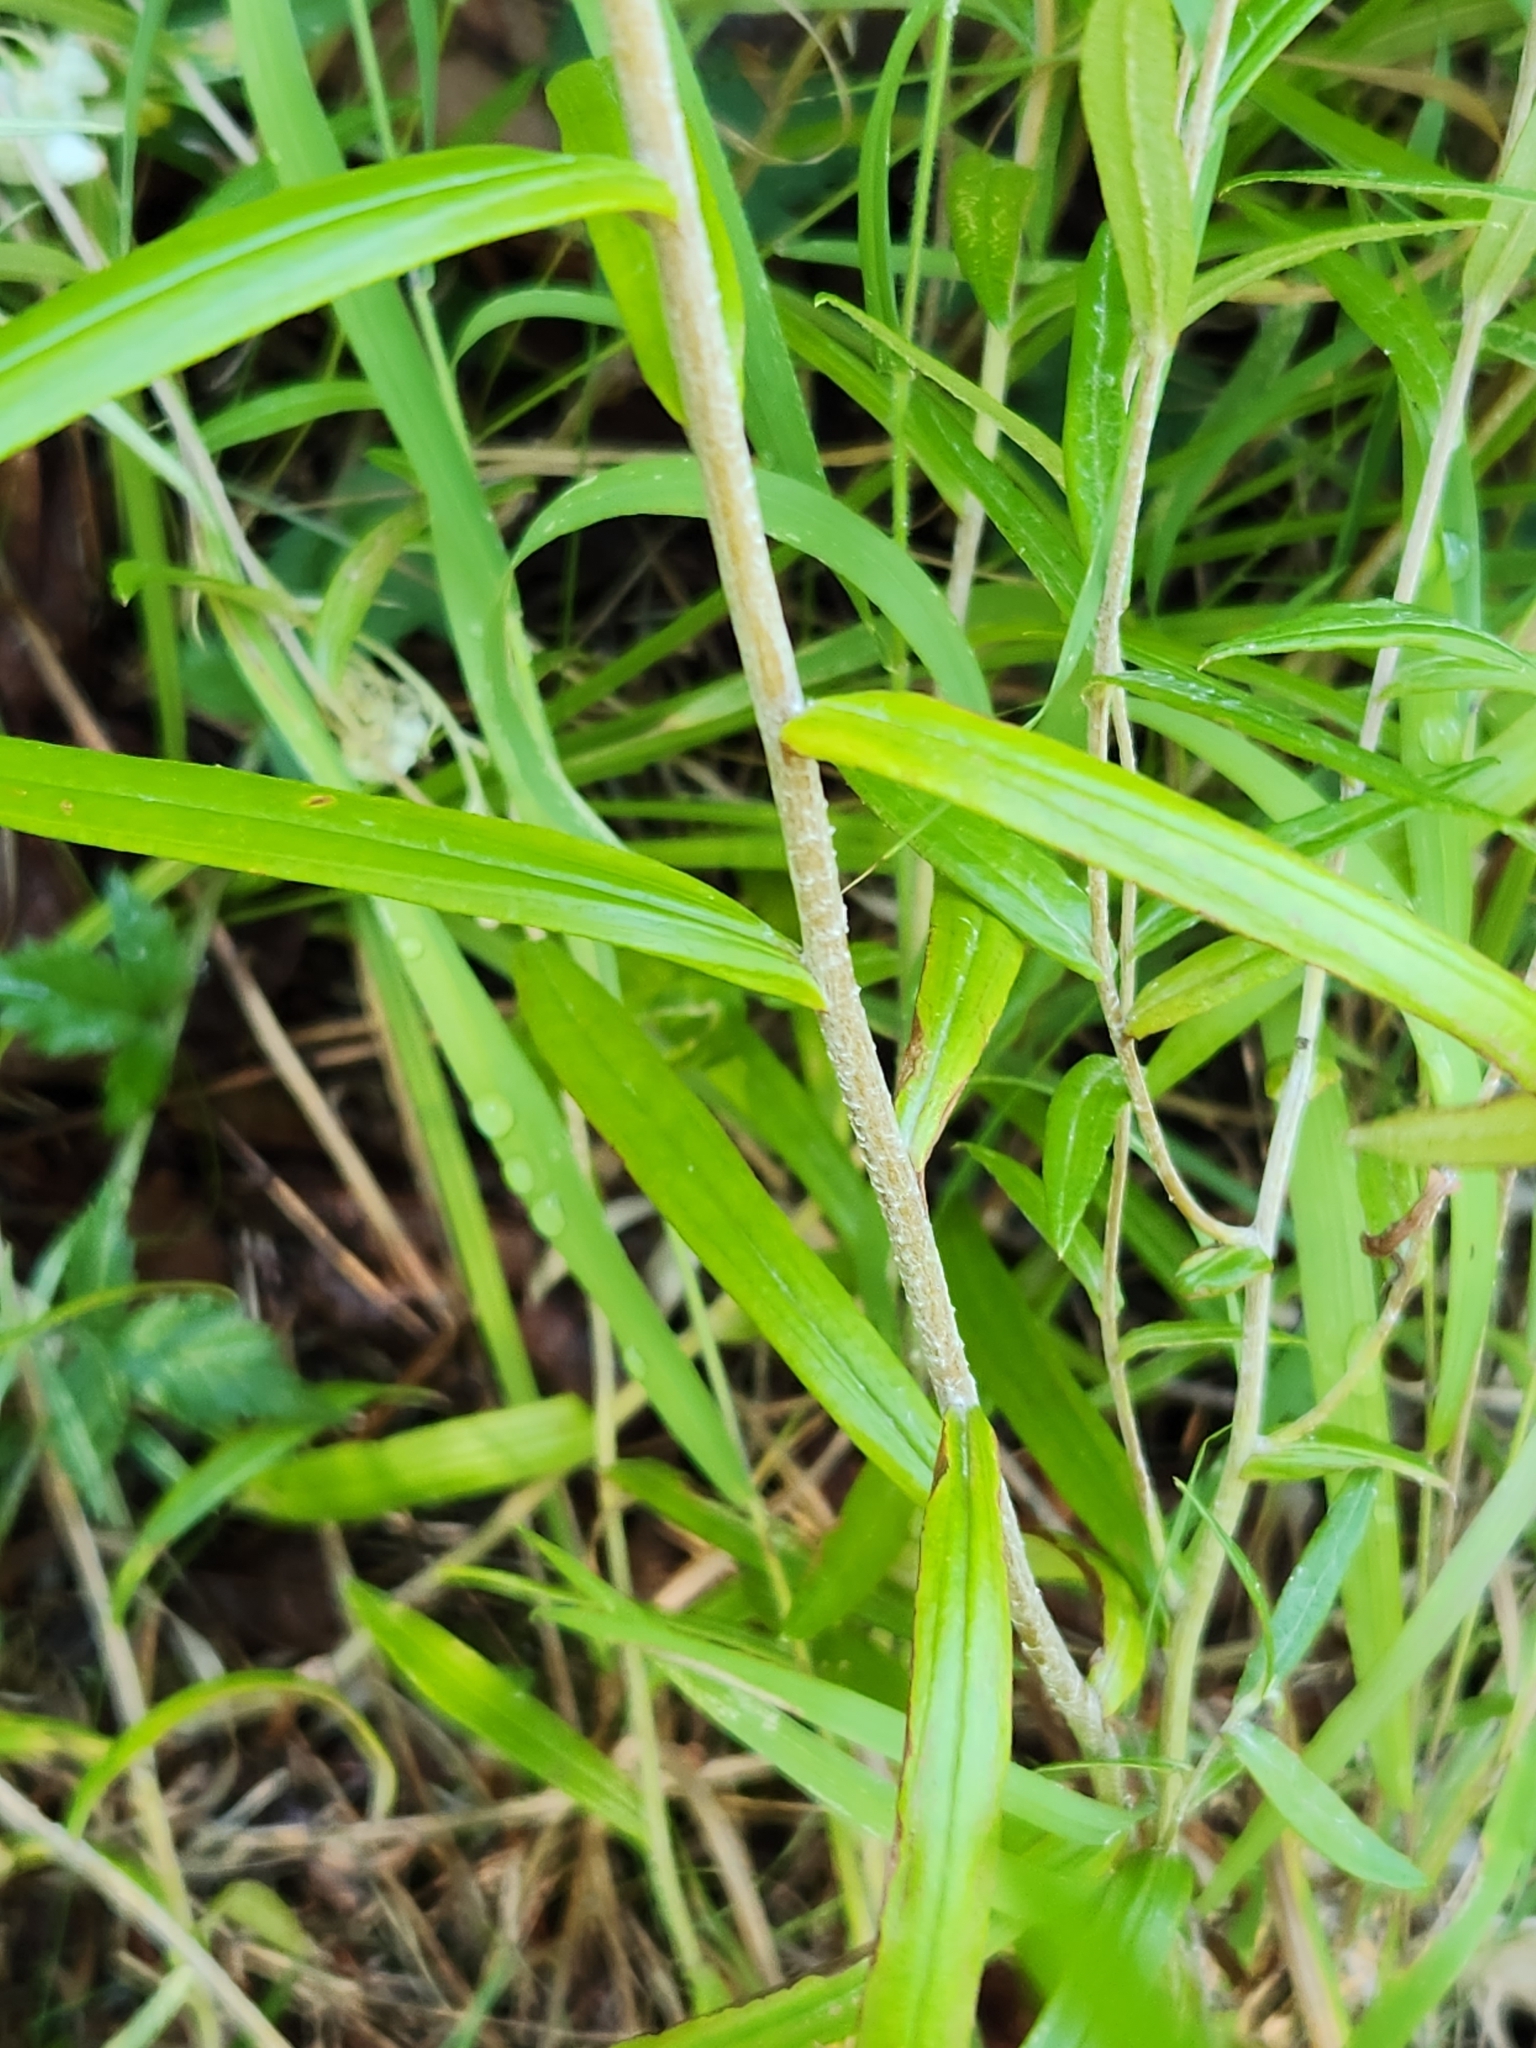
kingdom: Plantae
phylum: Tracheophyta
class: Magnoliopsida
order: Asterales
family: Asteraceae
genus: Anaphalis
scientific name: Anaphalis margaritacea
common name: Pearly everlasting
